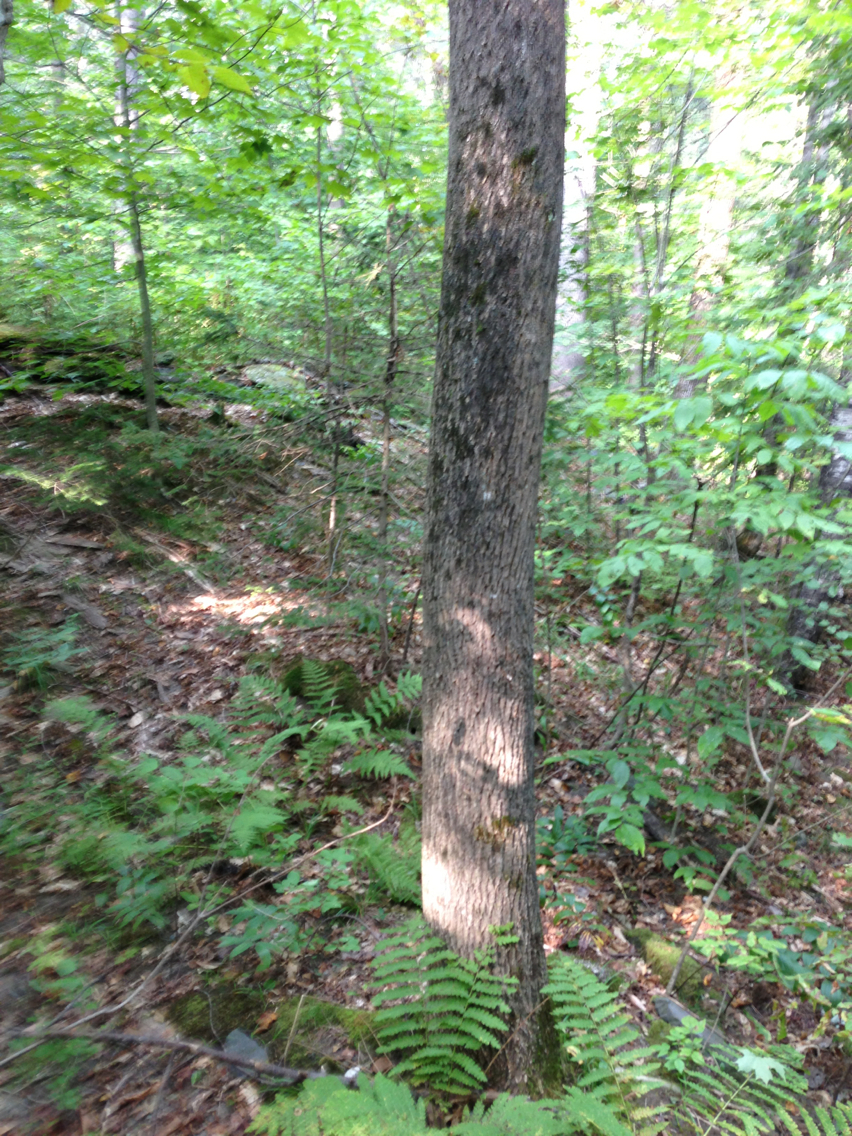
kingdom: Plantae
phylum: Tracheophyta
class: Magnoliopsida
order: Lamiales
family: Oleaceae
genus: Fraxinus
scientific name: Fraxinus americana
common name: White ash
